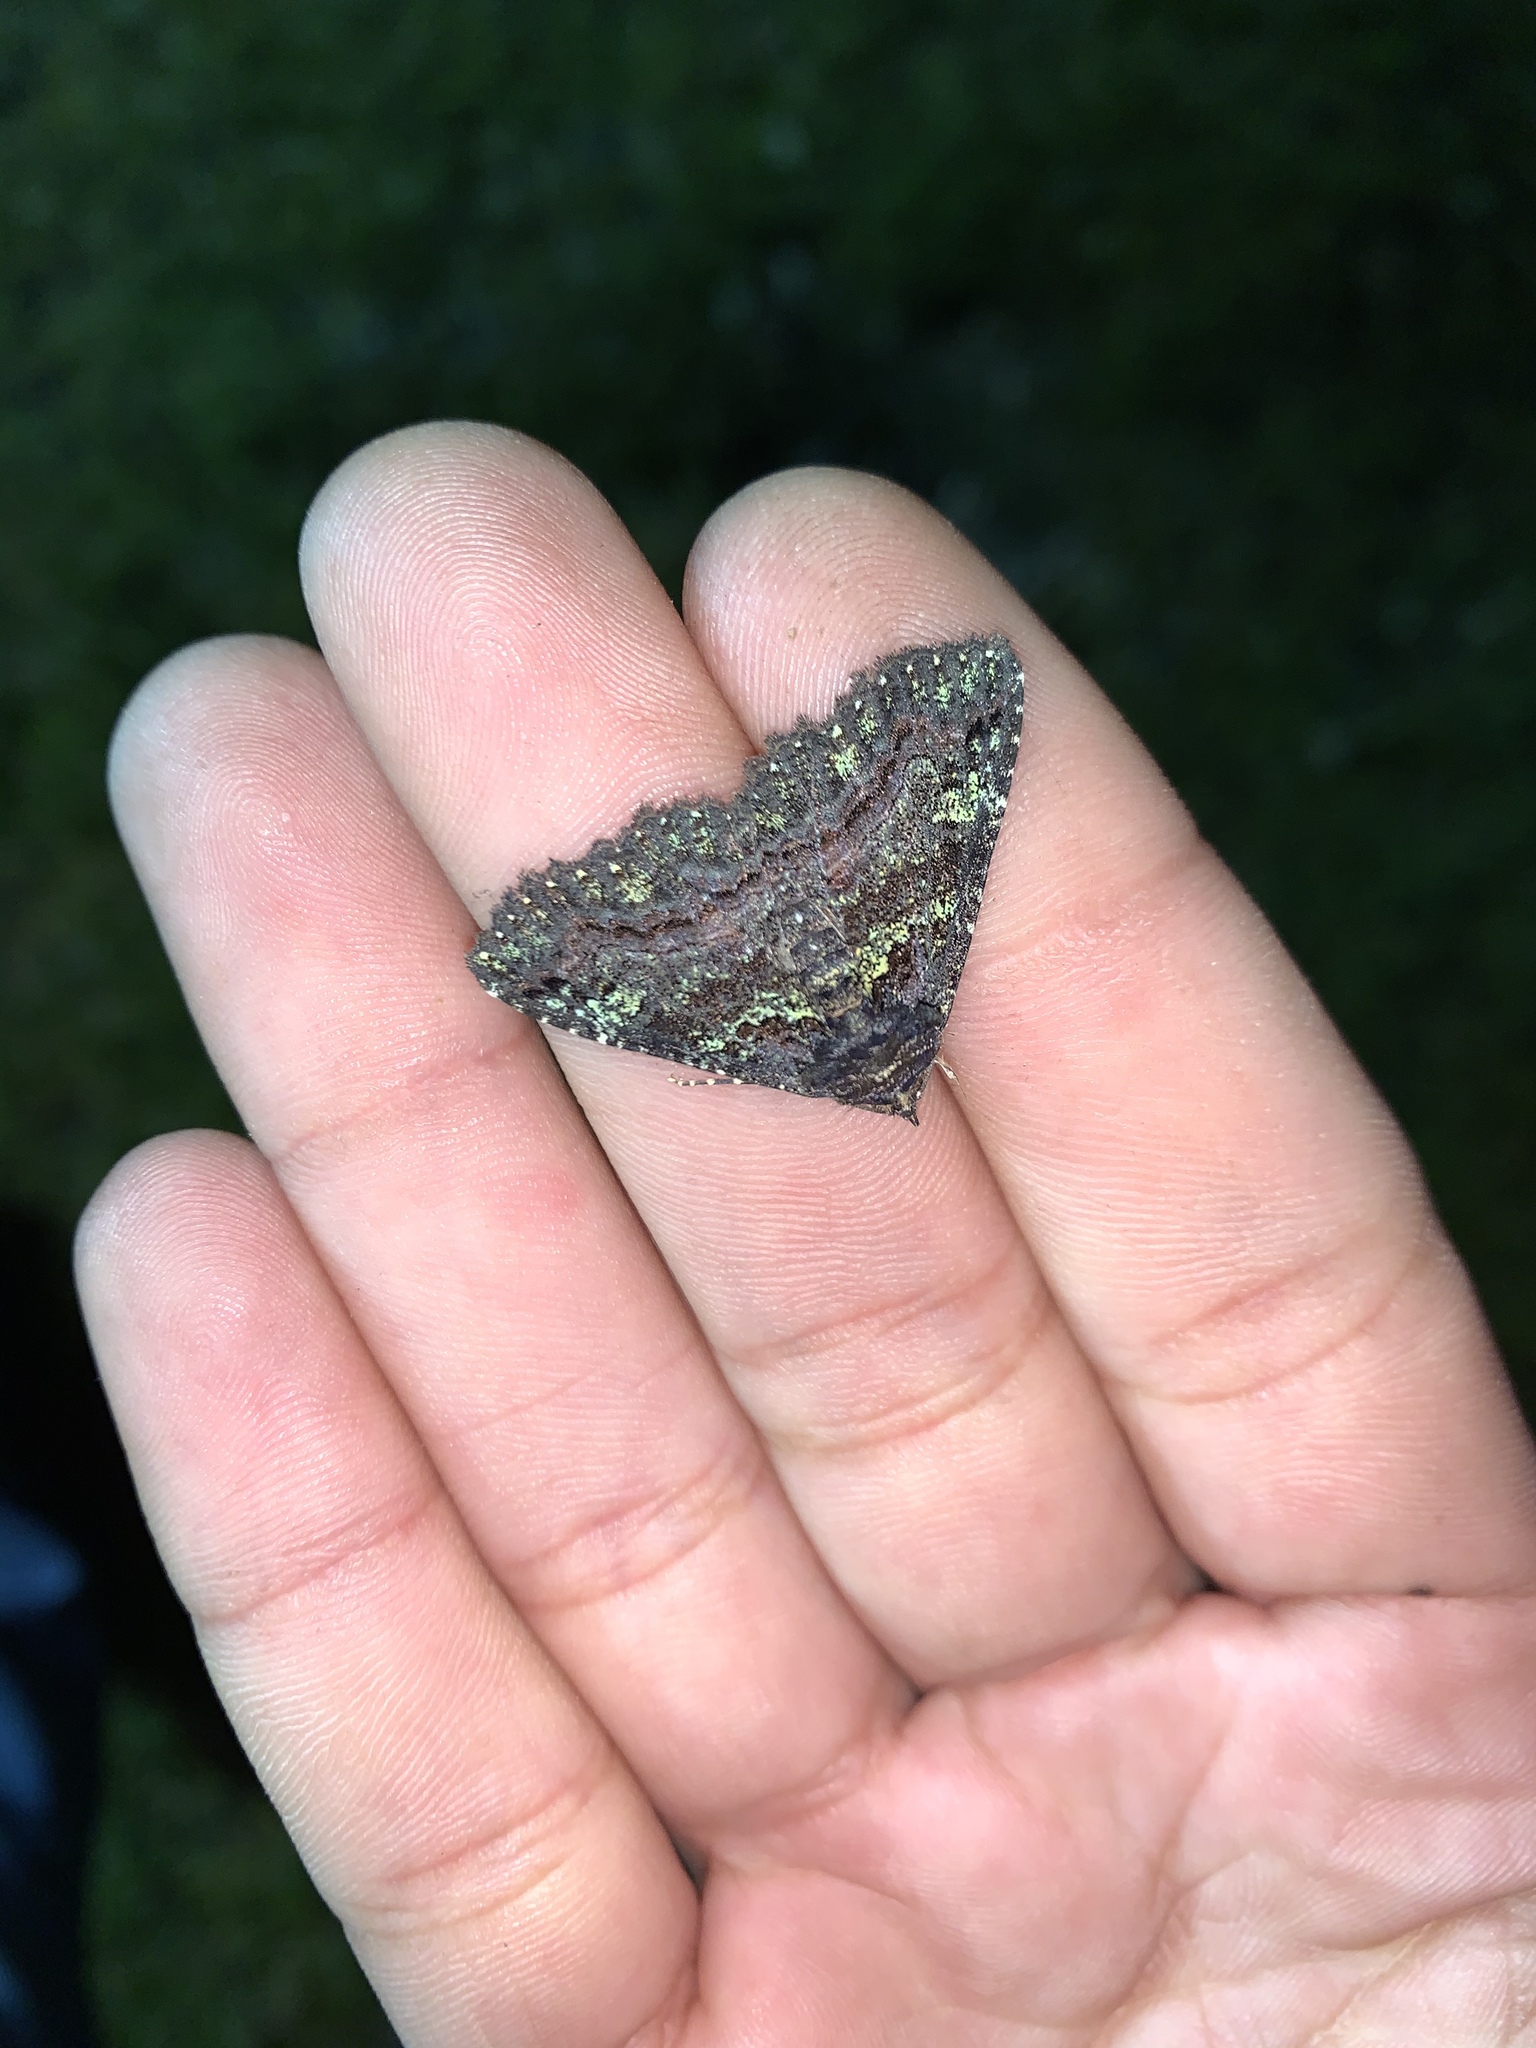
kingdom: Animalia
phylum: Arthropoda
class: Insecta
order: Lepidoptera
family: Erebidae
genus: Zale
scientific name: Zale aeruginosa
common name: Green-dusted zale moth
